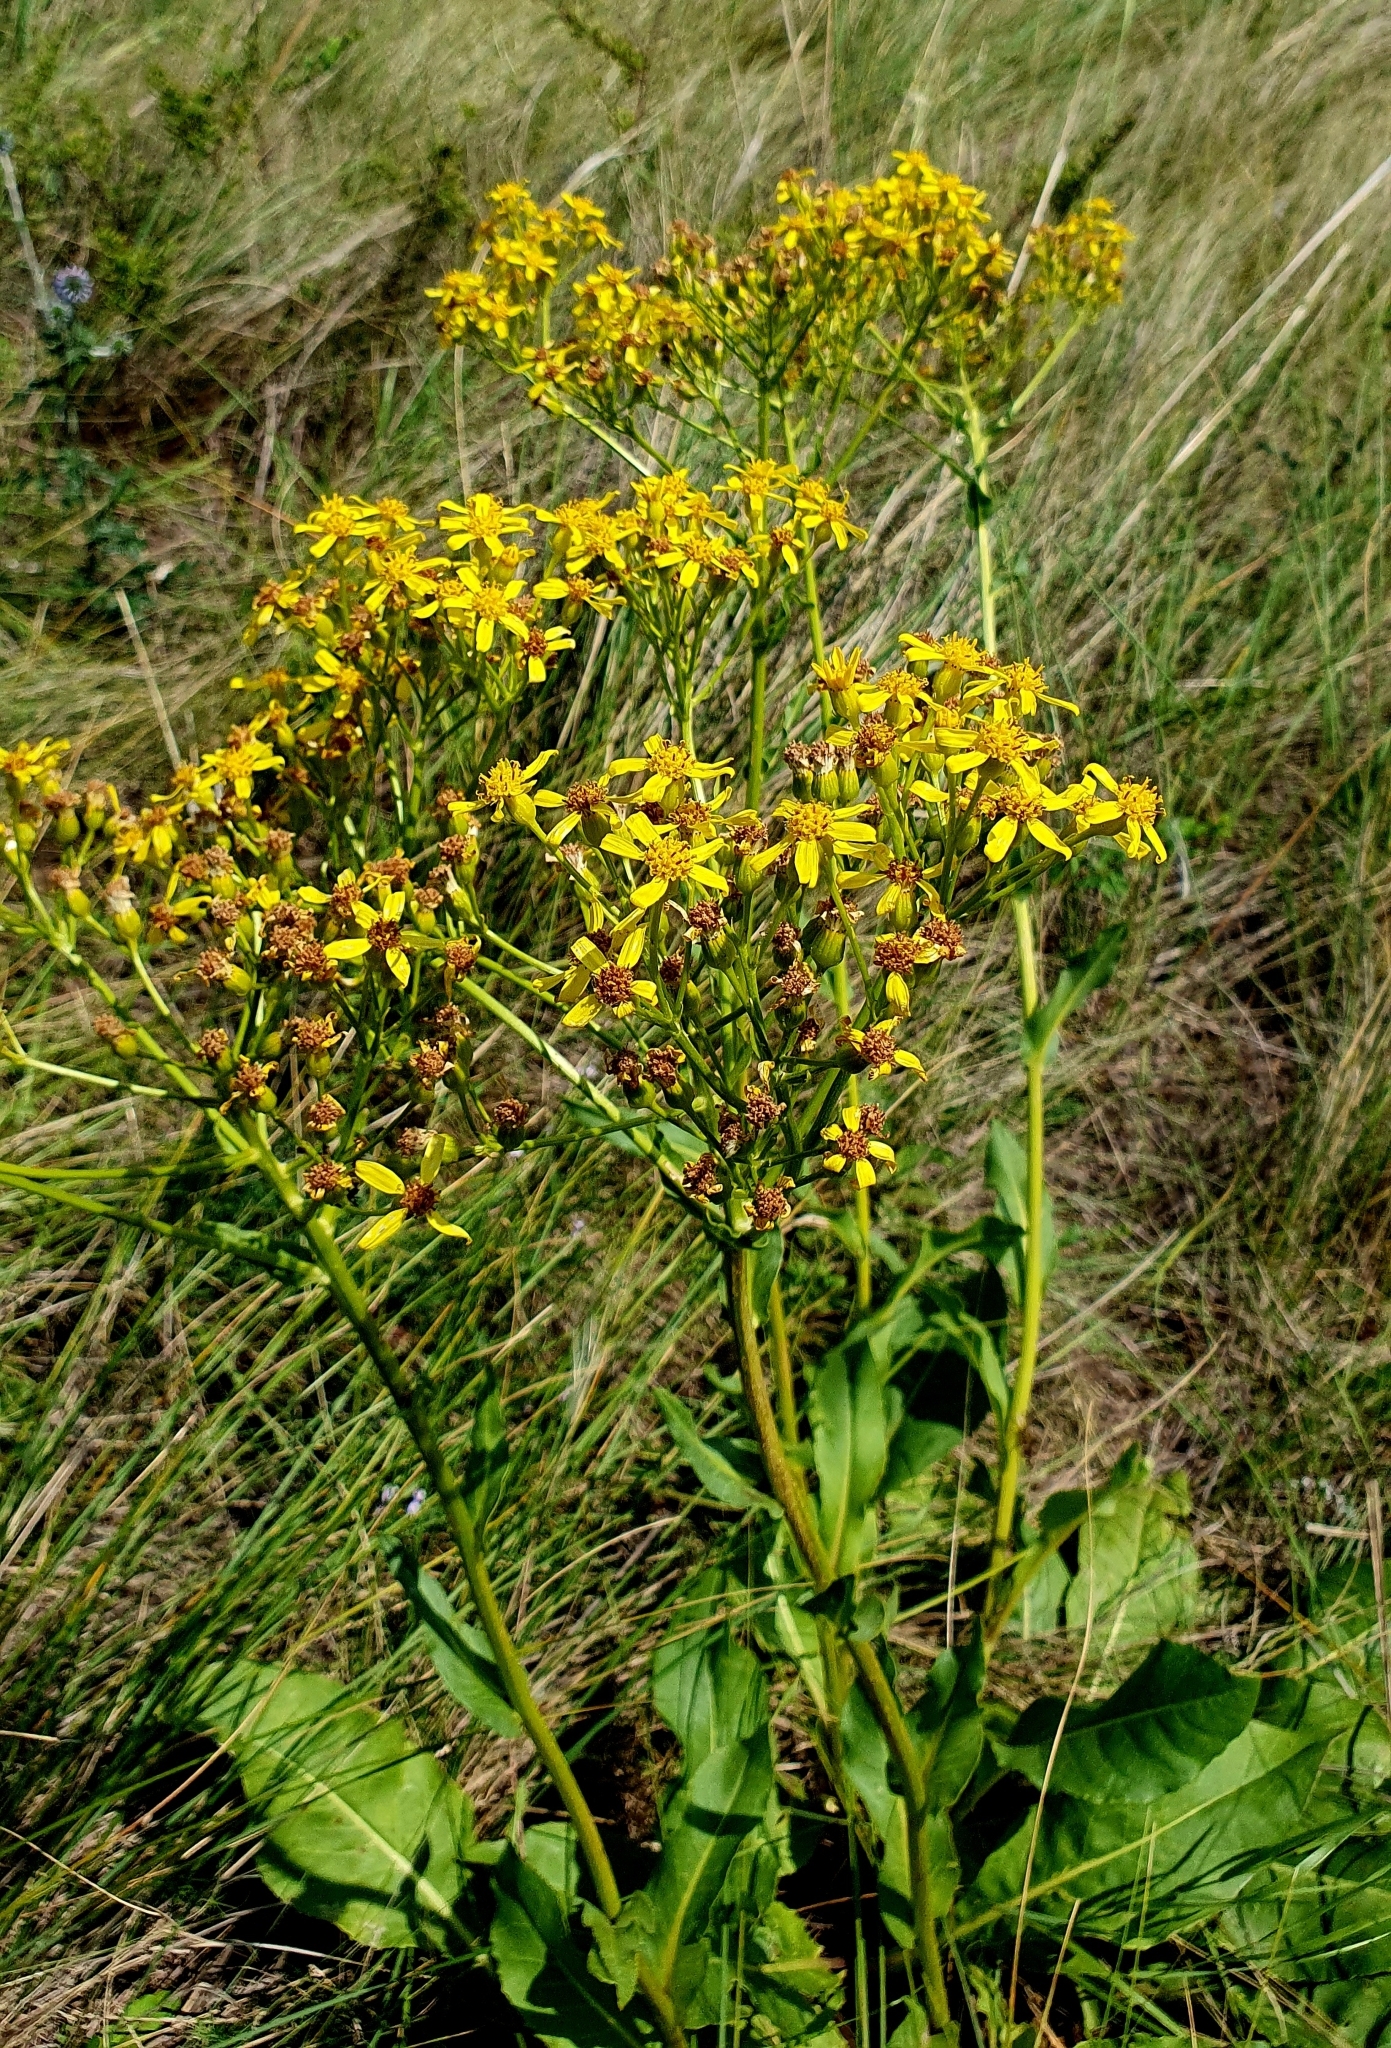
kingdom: Plantae
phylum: Tracheophyta
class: Magnoliopsida
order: Asterales
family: Asteraceae
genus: Senecio
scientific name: Senecio doria
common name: Golden ragwort
